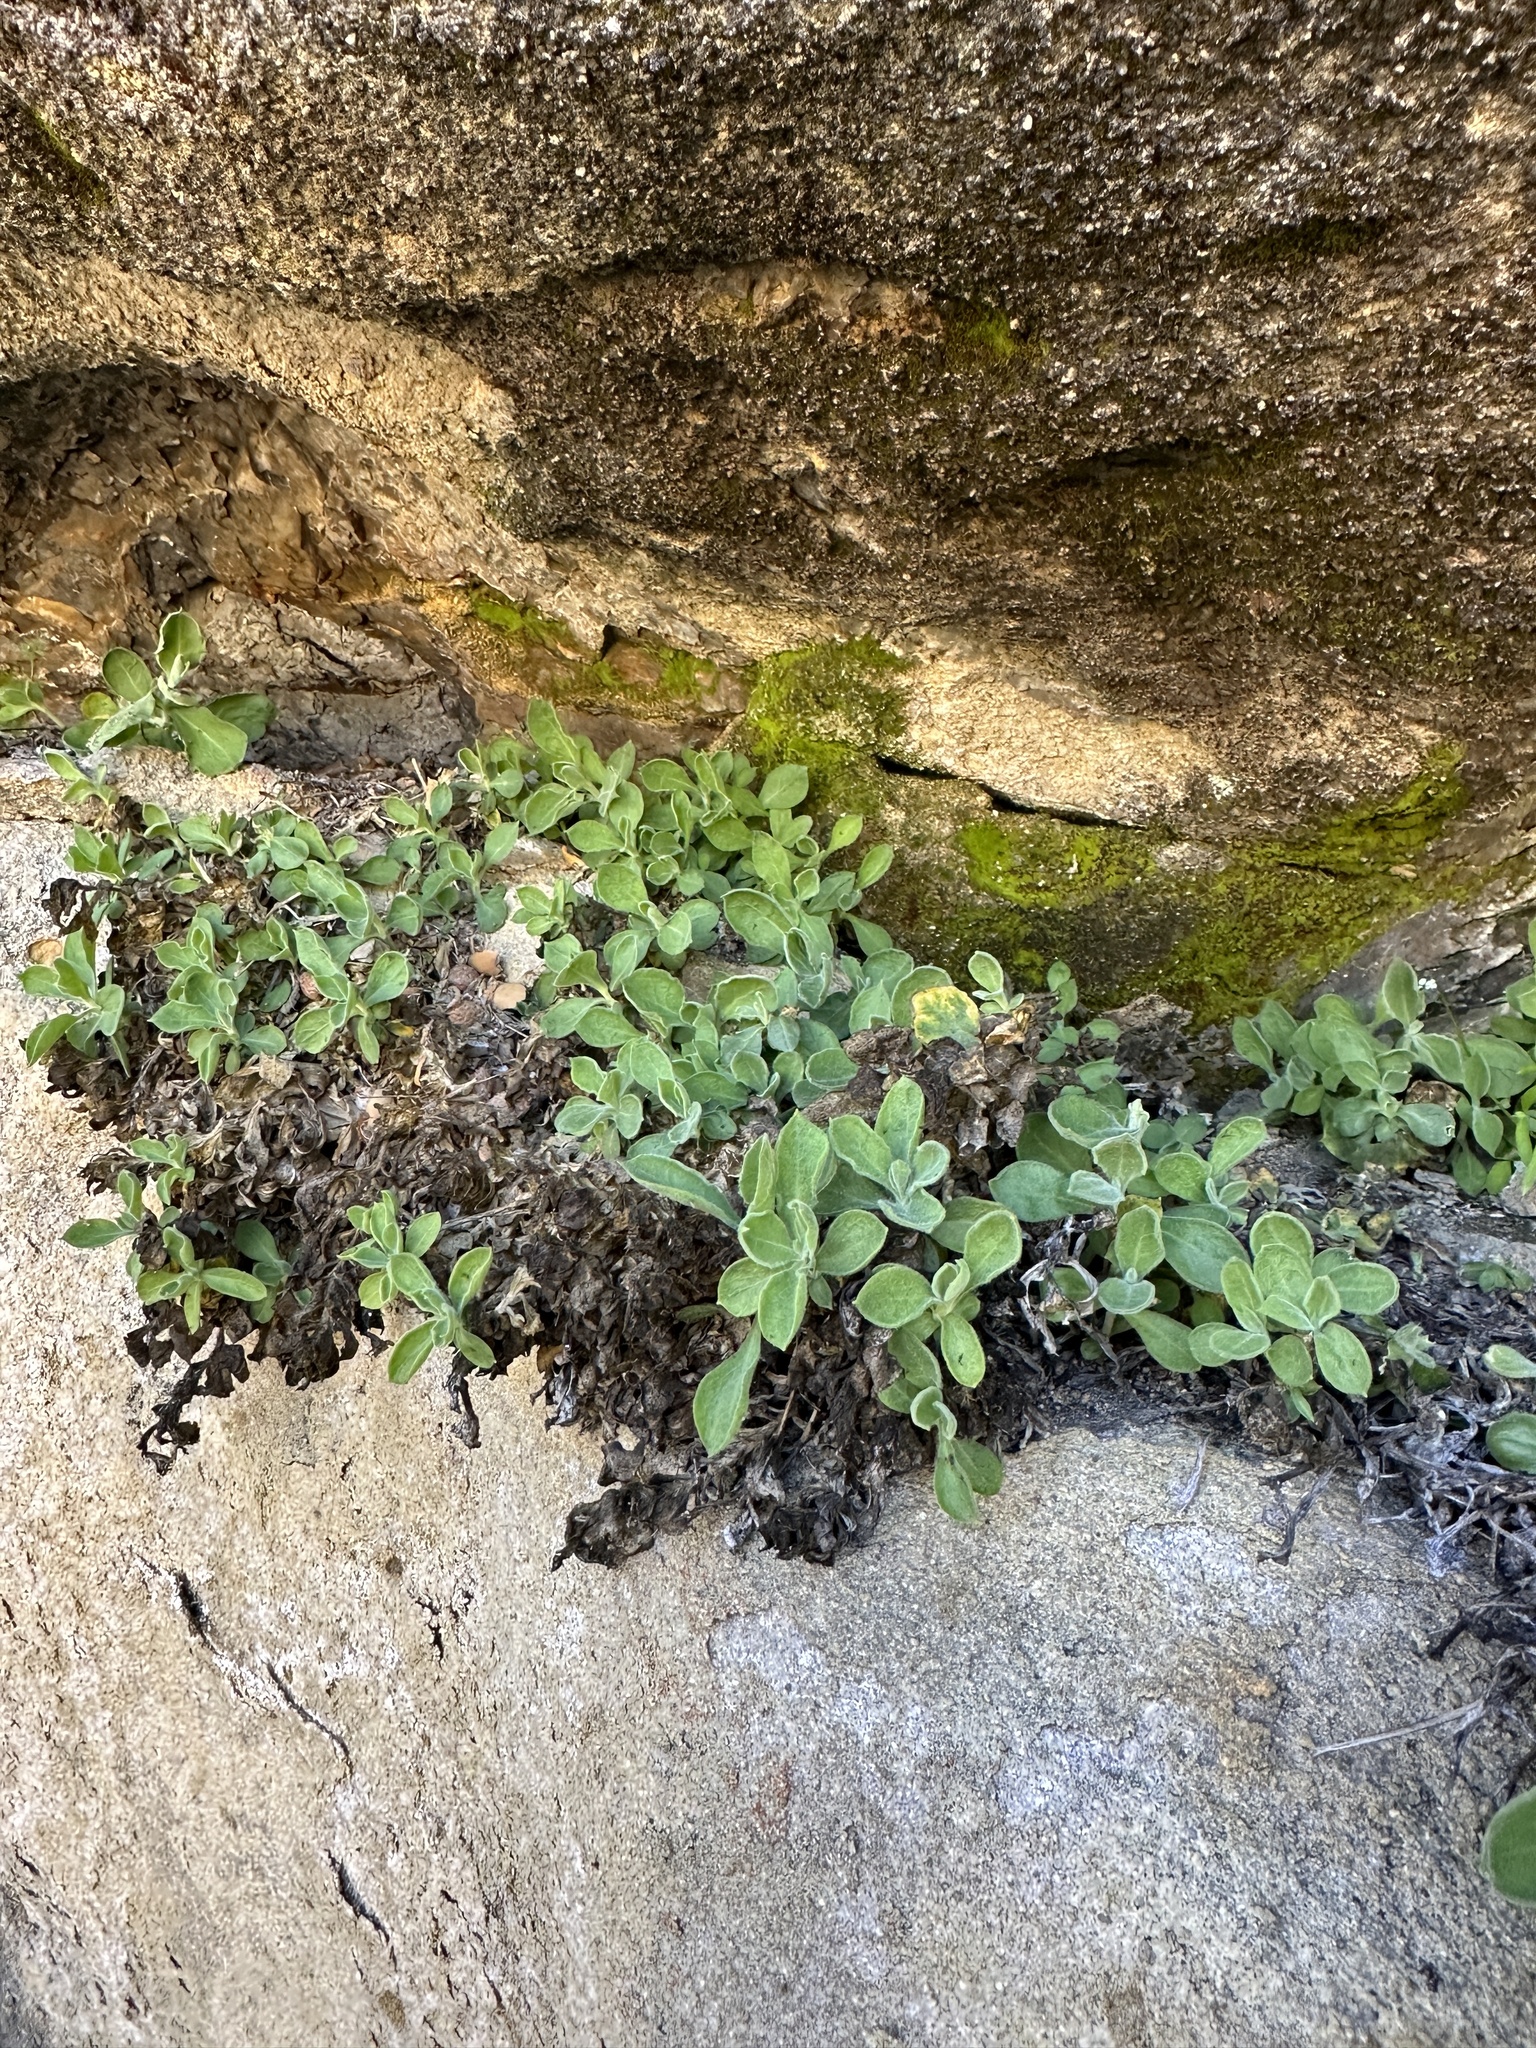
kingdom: Plantae
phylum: Tracheophyta
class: Magnoliopsida
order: Caryophyllales
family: Caryophyllaceae
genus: Silene
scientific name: Silene laciniata
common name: Indian-pink
